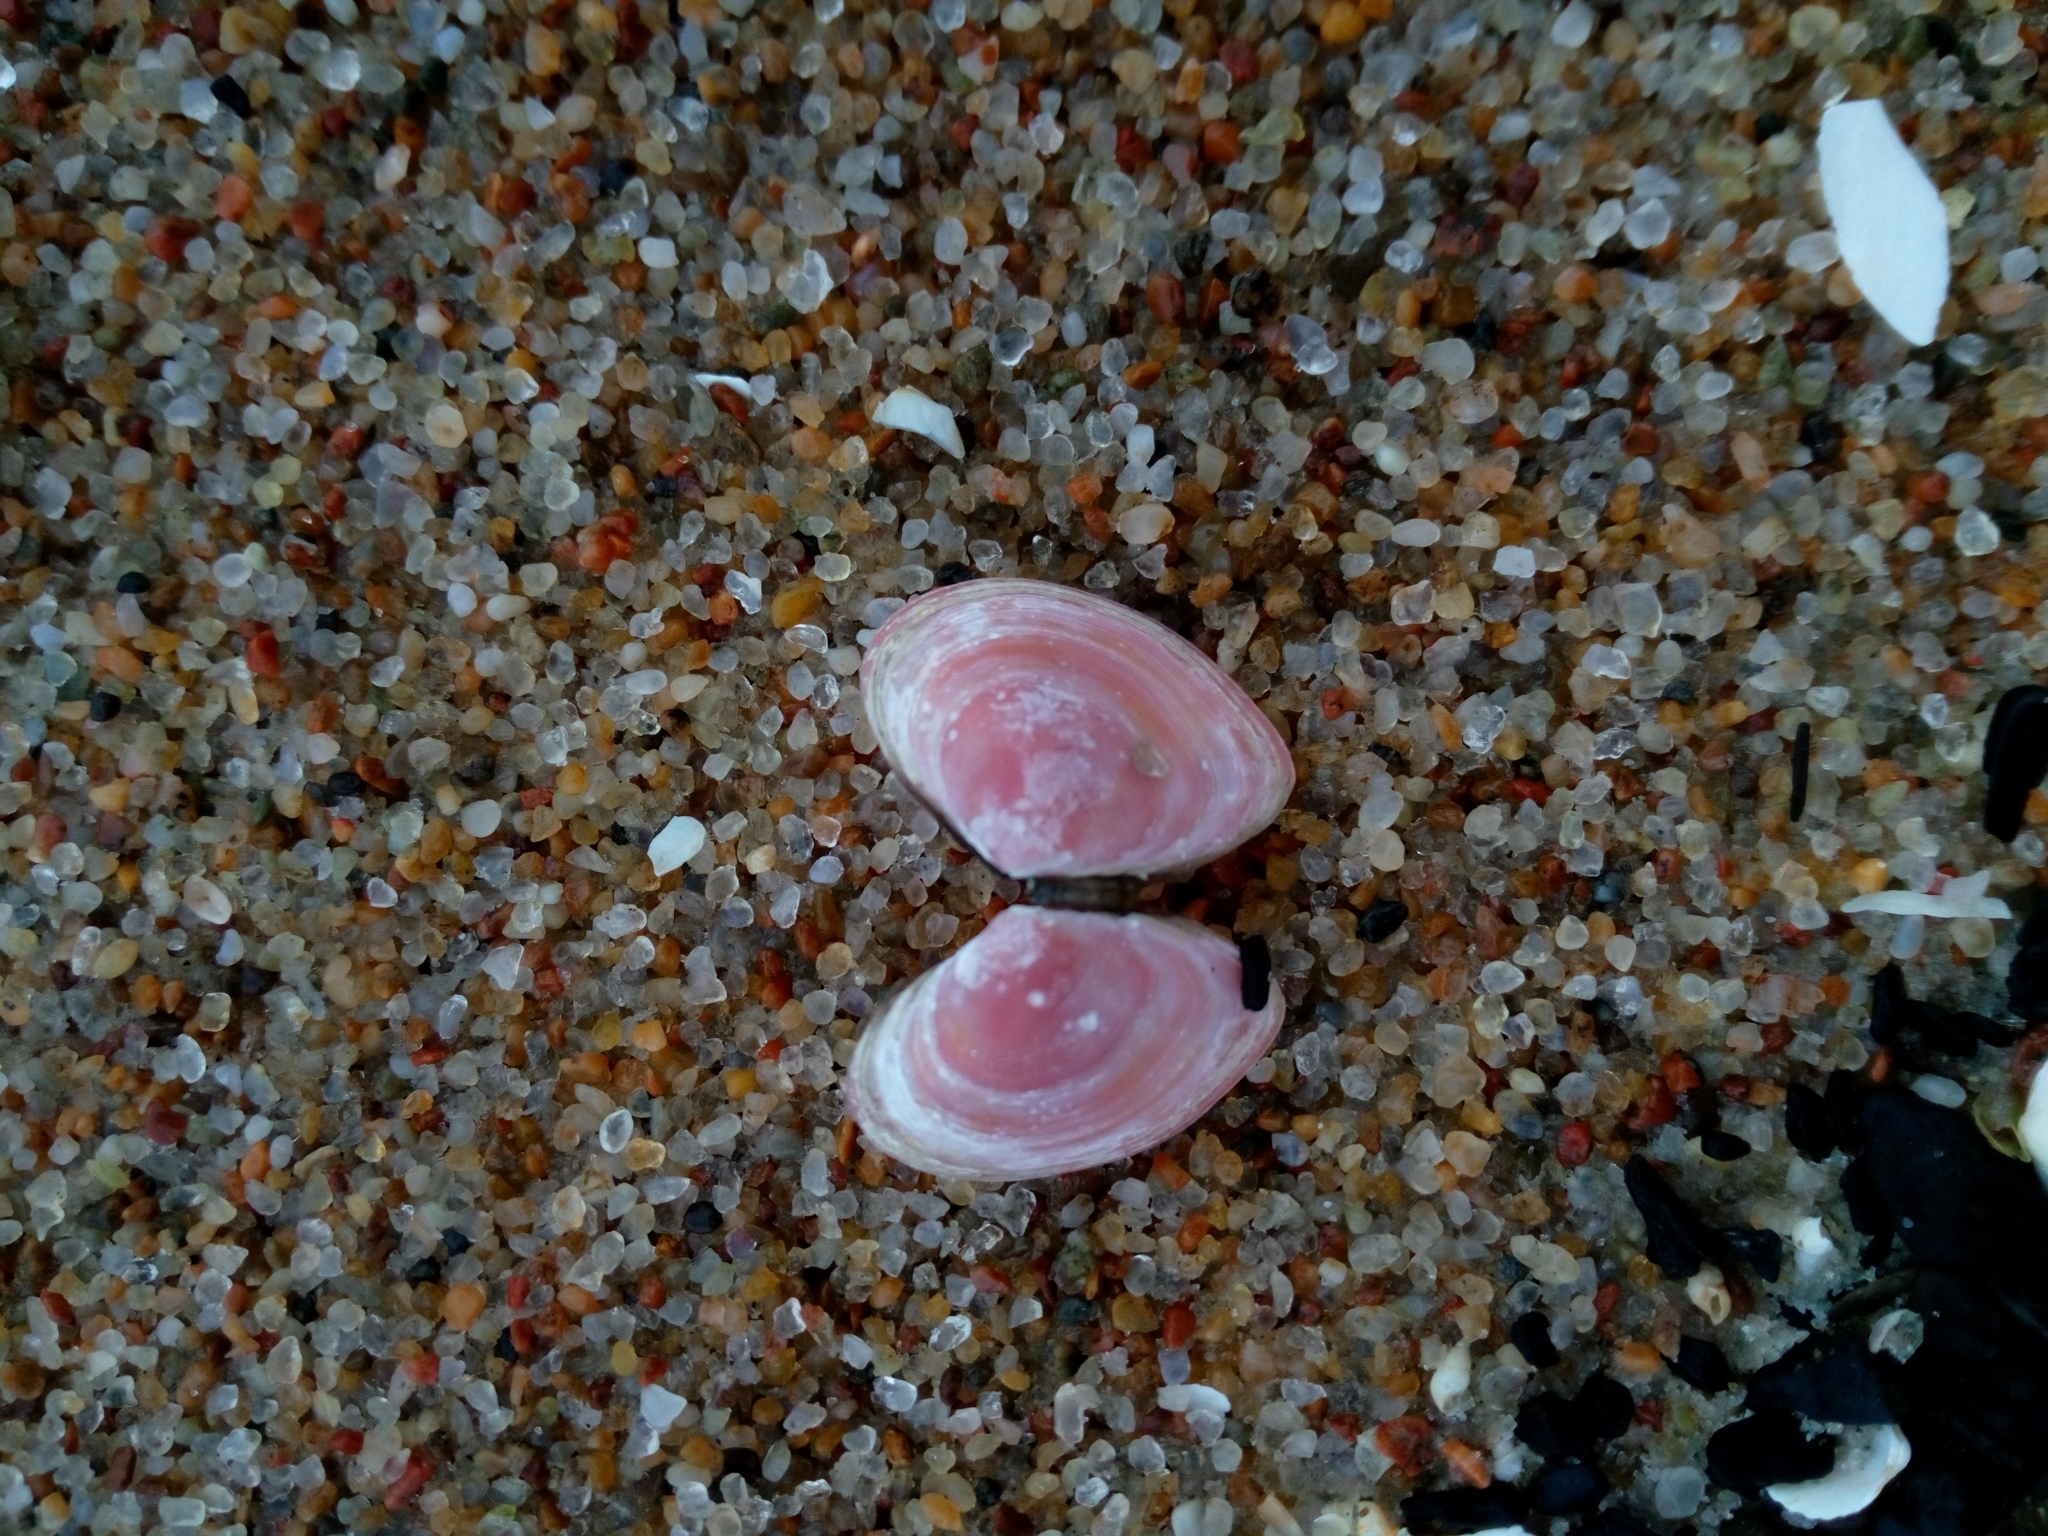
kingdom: Animalia
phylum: Mollusca
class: Bivalvia
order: Cardiida
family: Tellinidae
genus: Macoma
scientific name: Macoma balthica
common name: Baltic tellin
